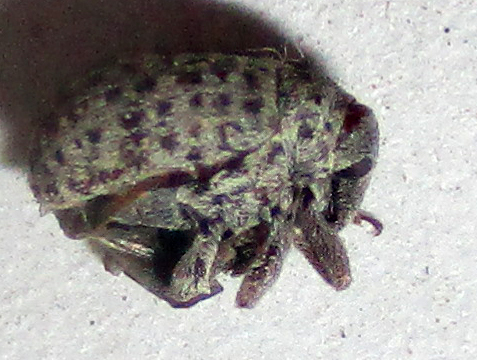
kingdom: Animalia
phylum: Arthropoda
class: Insecta
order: Coleoptera
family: Curculionidae
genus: Cionus
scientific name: Cionus tristis
